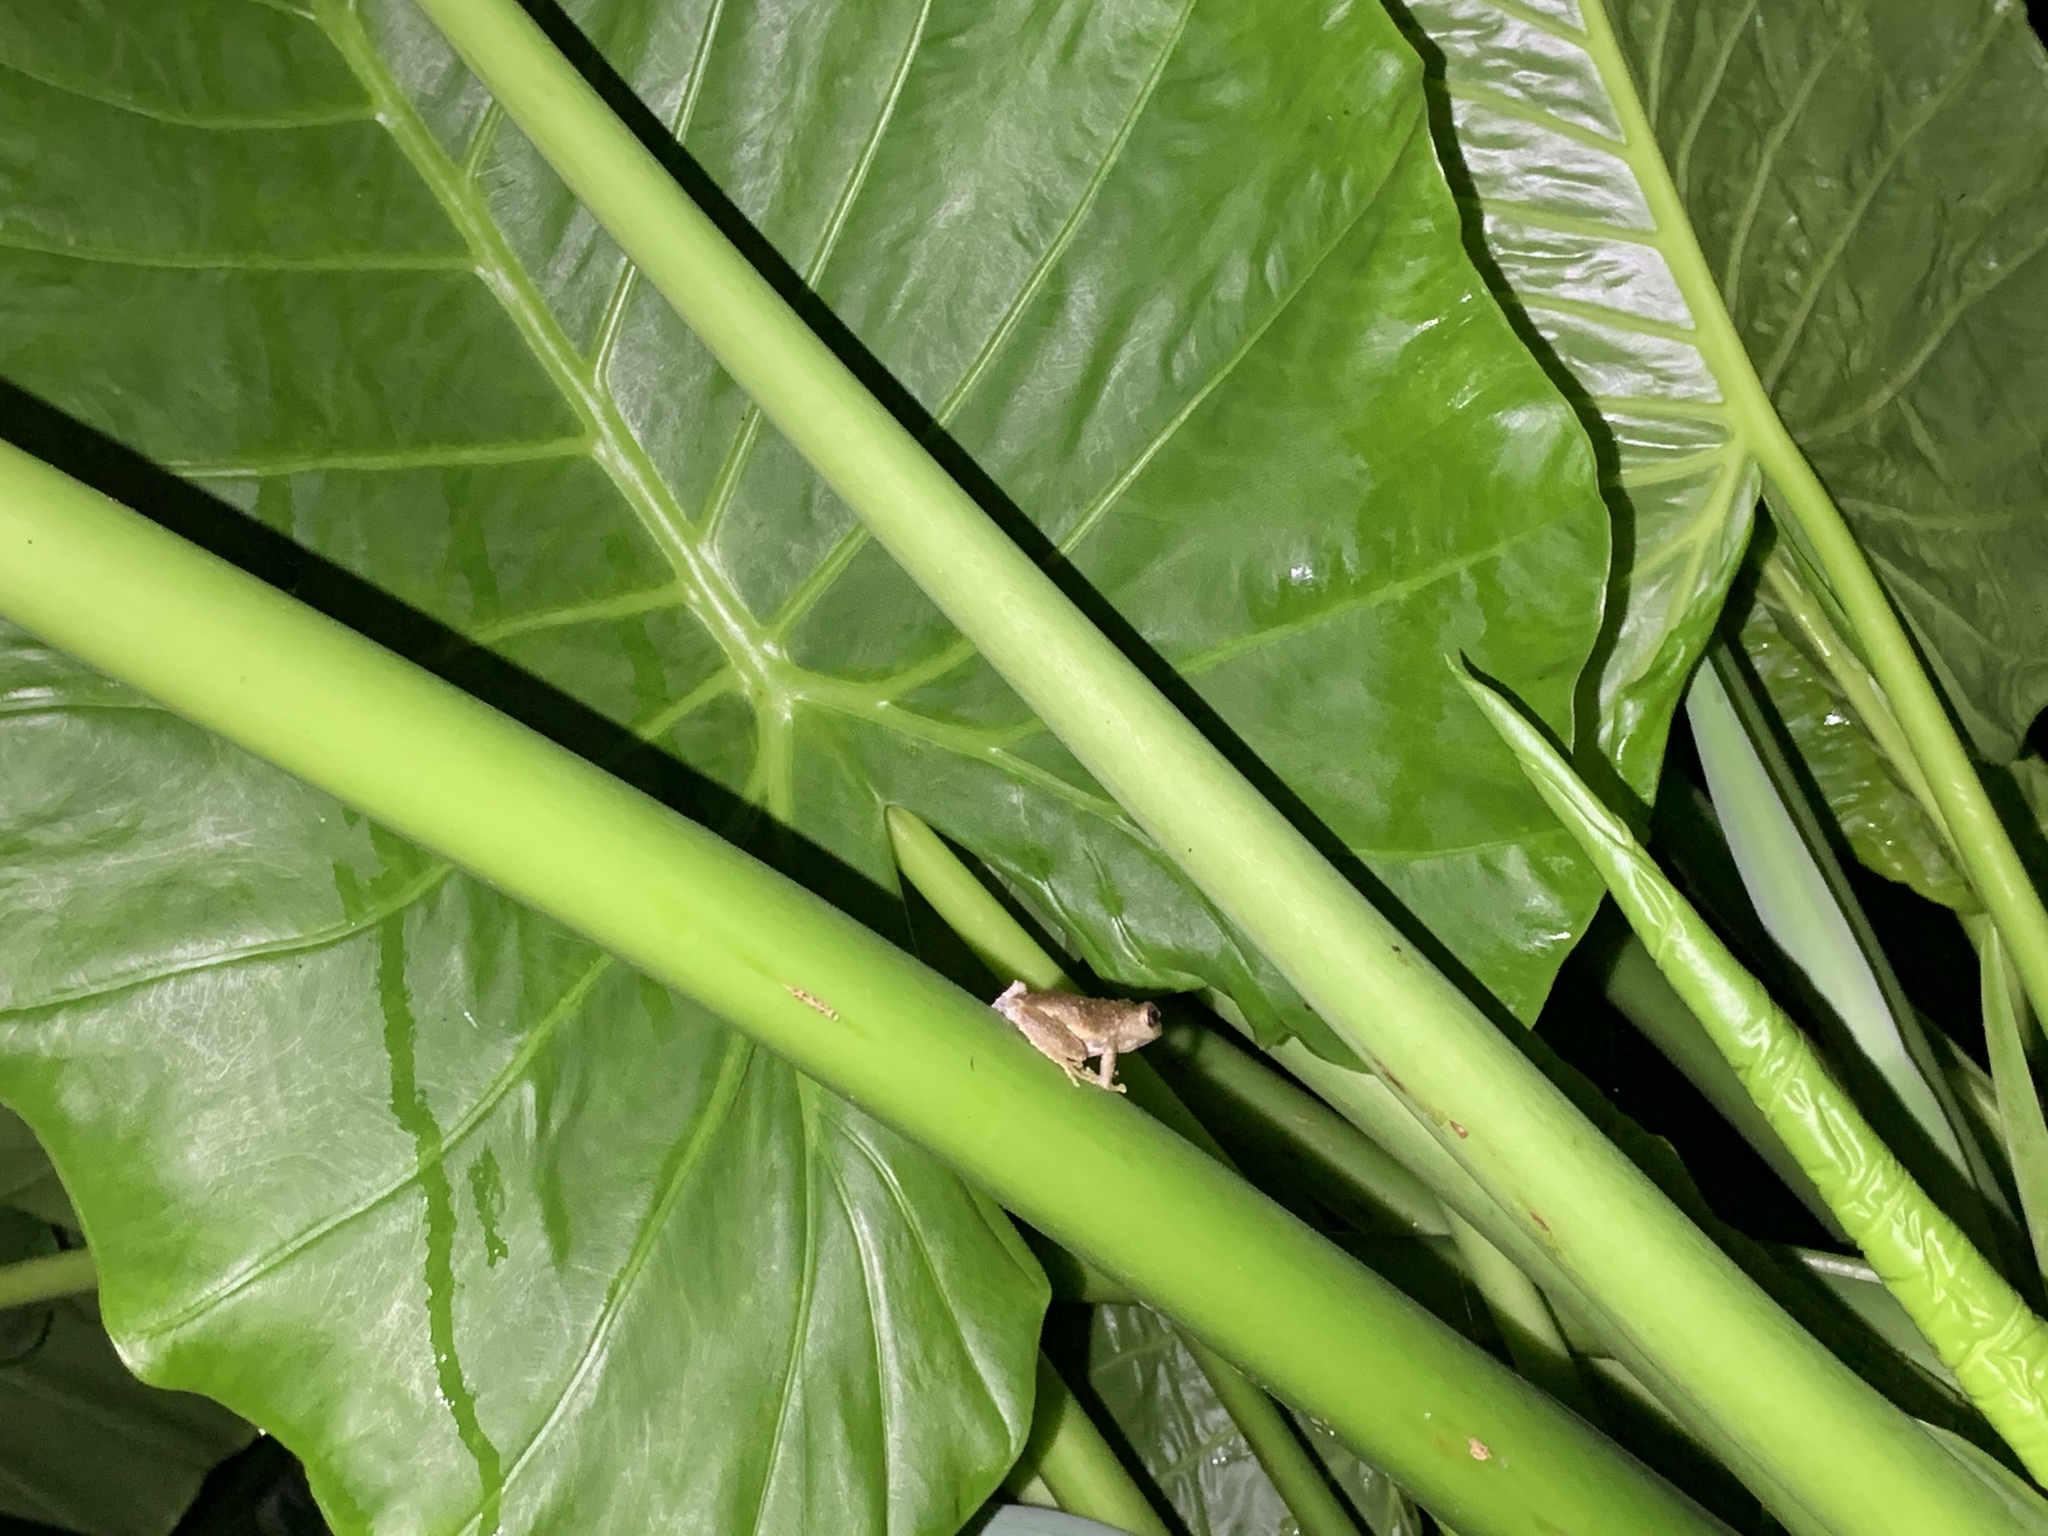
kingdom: Animalia
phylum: Chordata
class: Amphibia
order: Anura
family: Rhacophoridae
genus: Kurixalus
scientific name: Kurixalus idiootocus
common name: Temple treefrog
